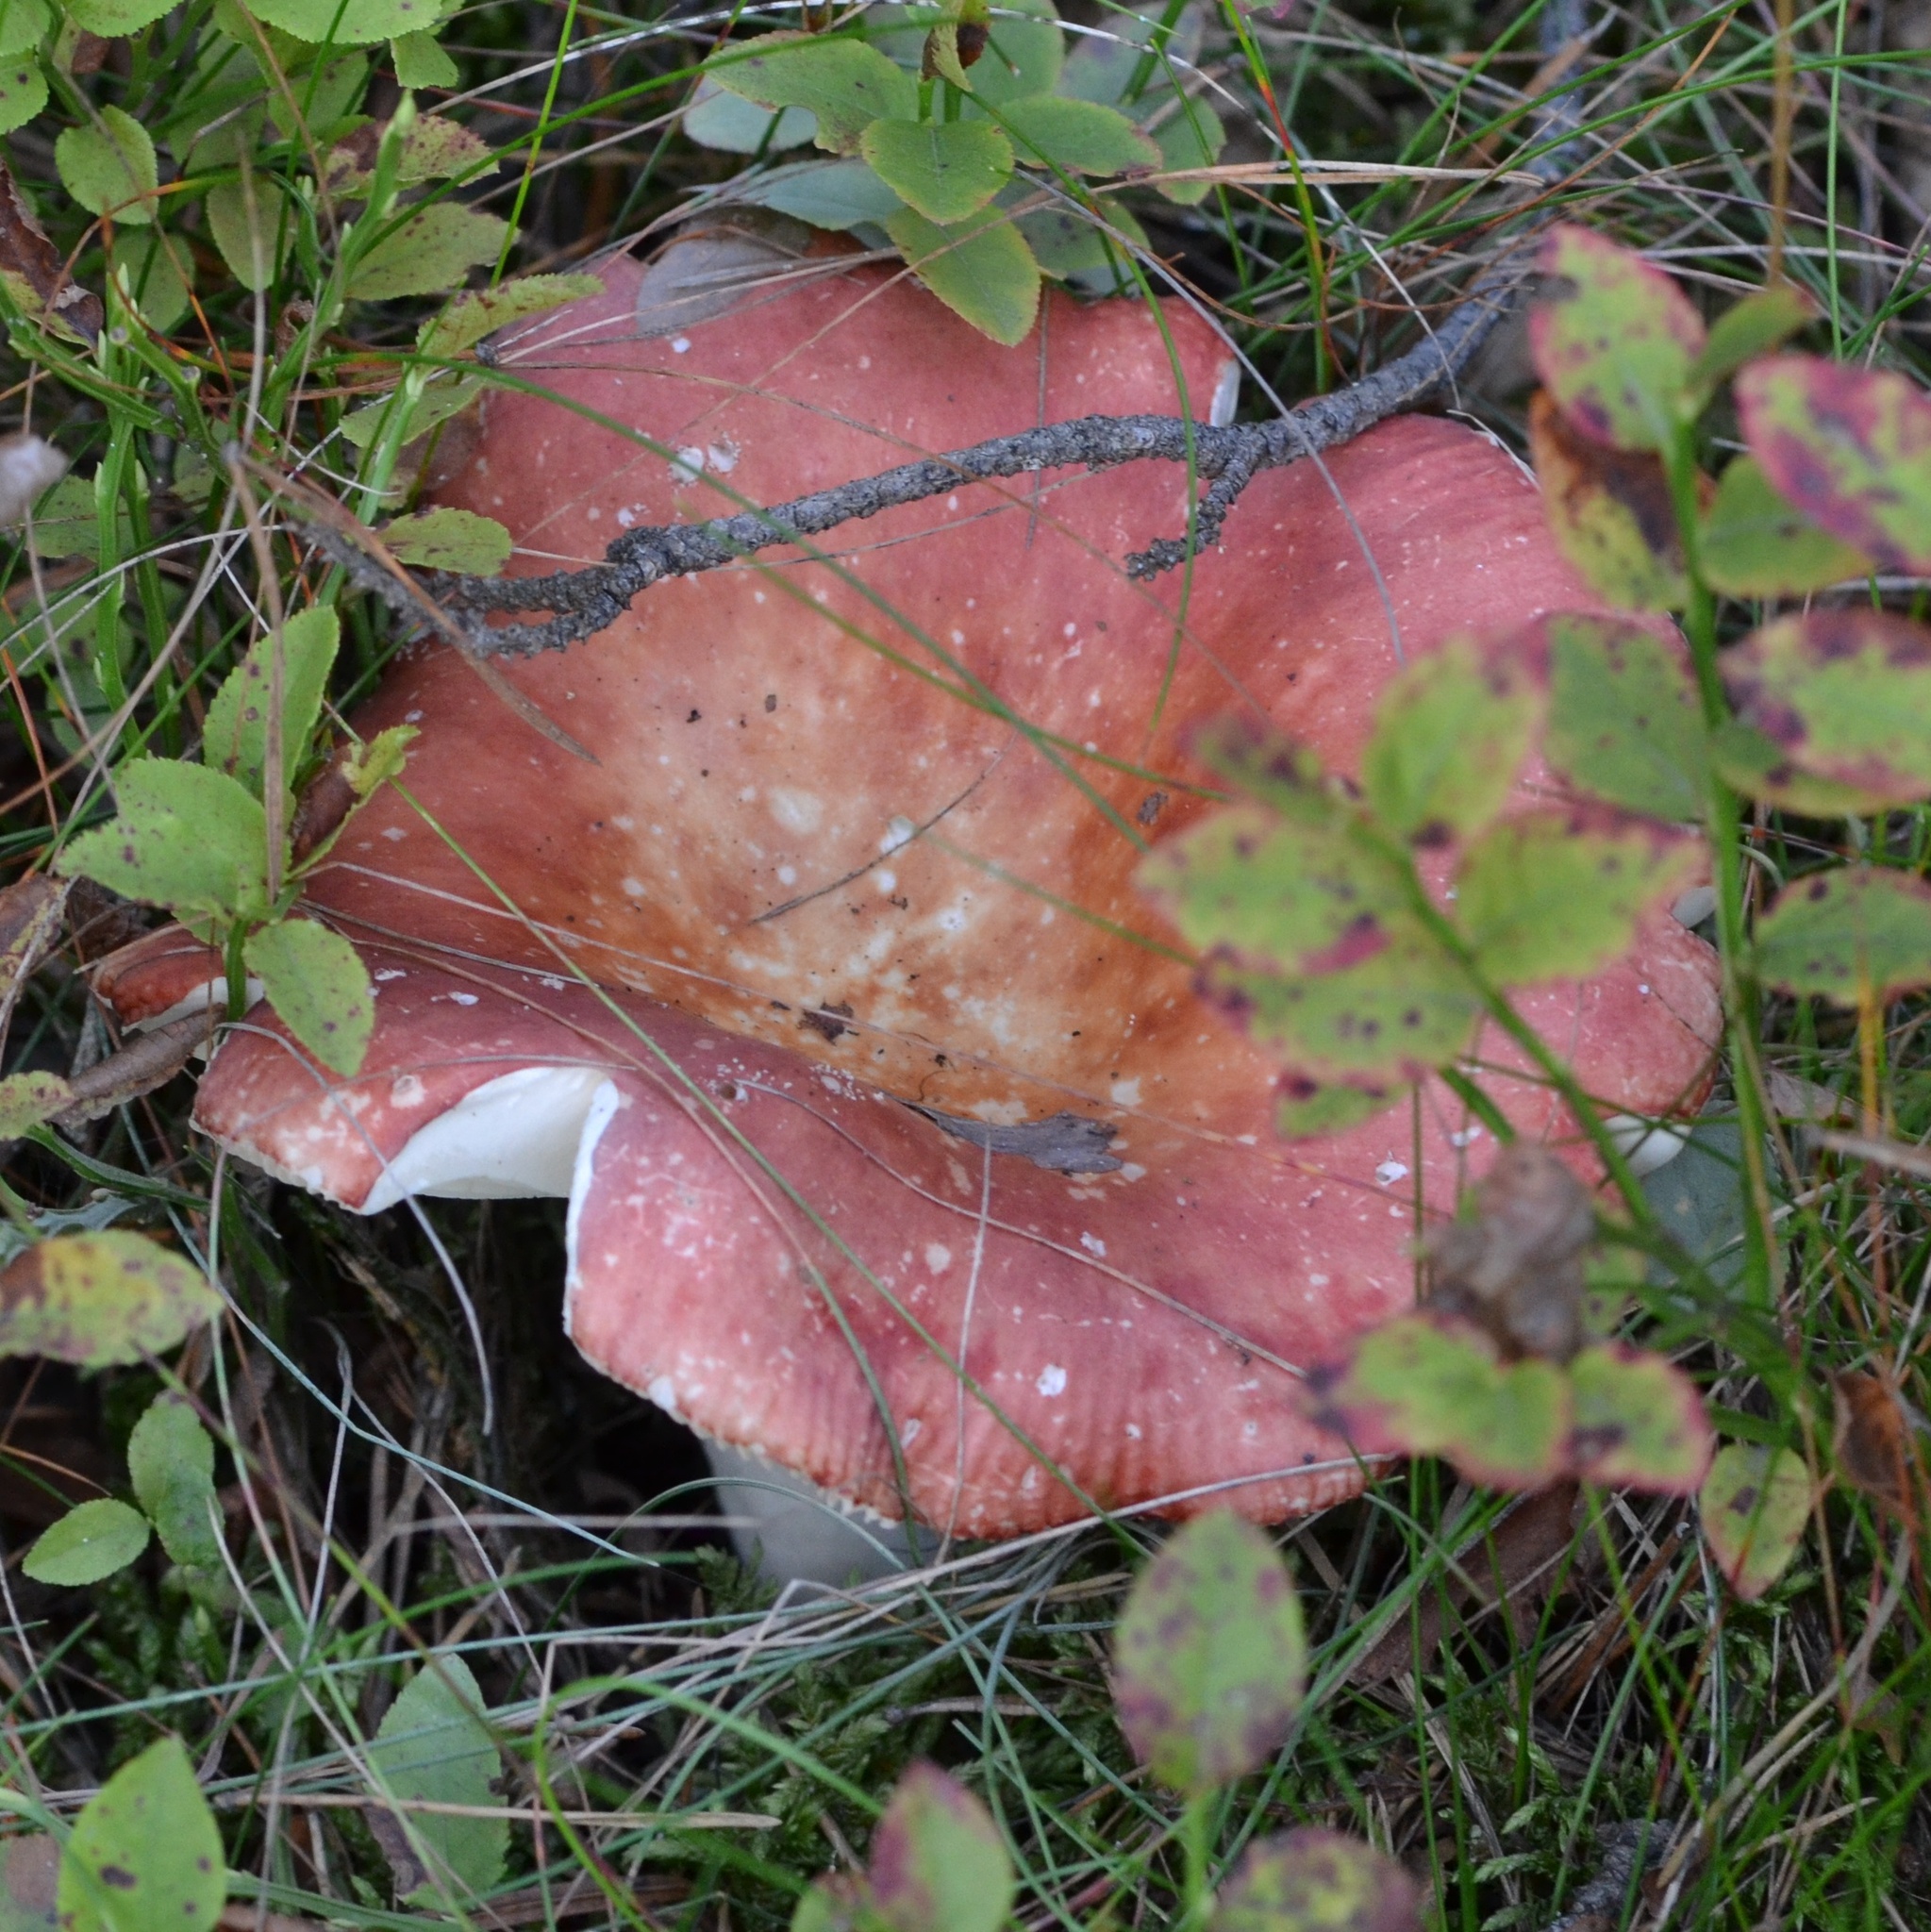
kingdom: Fungi
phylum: Basidiomycota
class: Agaricomycetes
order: Russulales
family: Russulaceae
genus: Russula
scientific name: Russula sanguinea
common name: Bloody brittlegill
